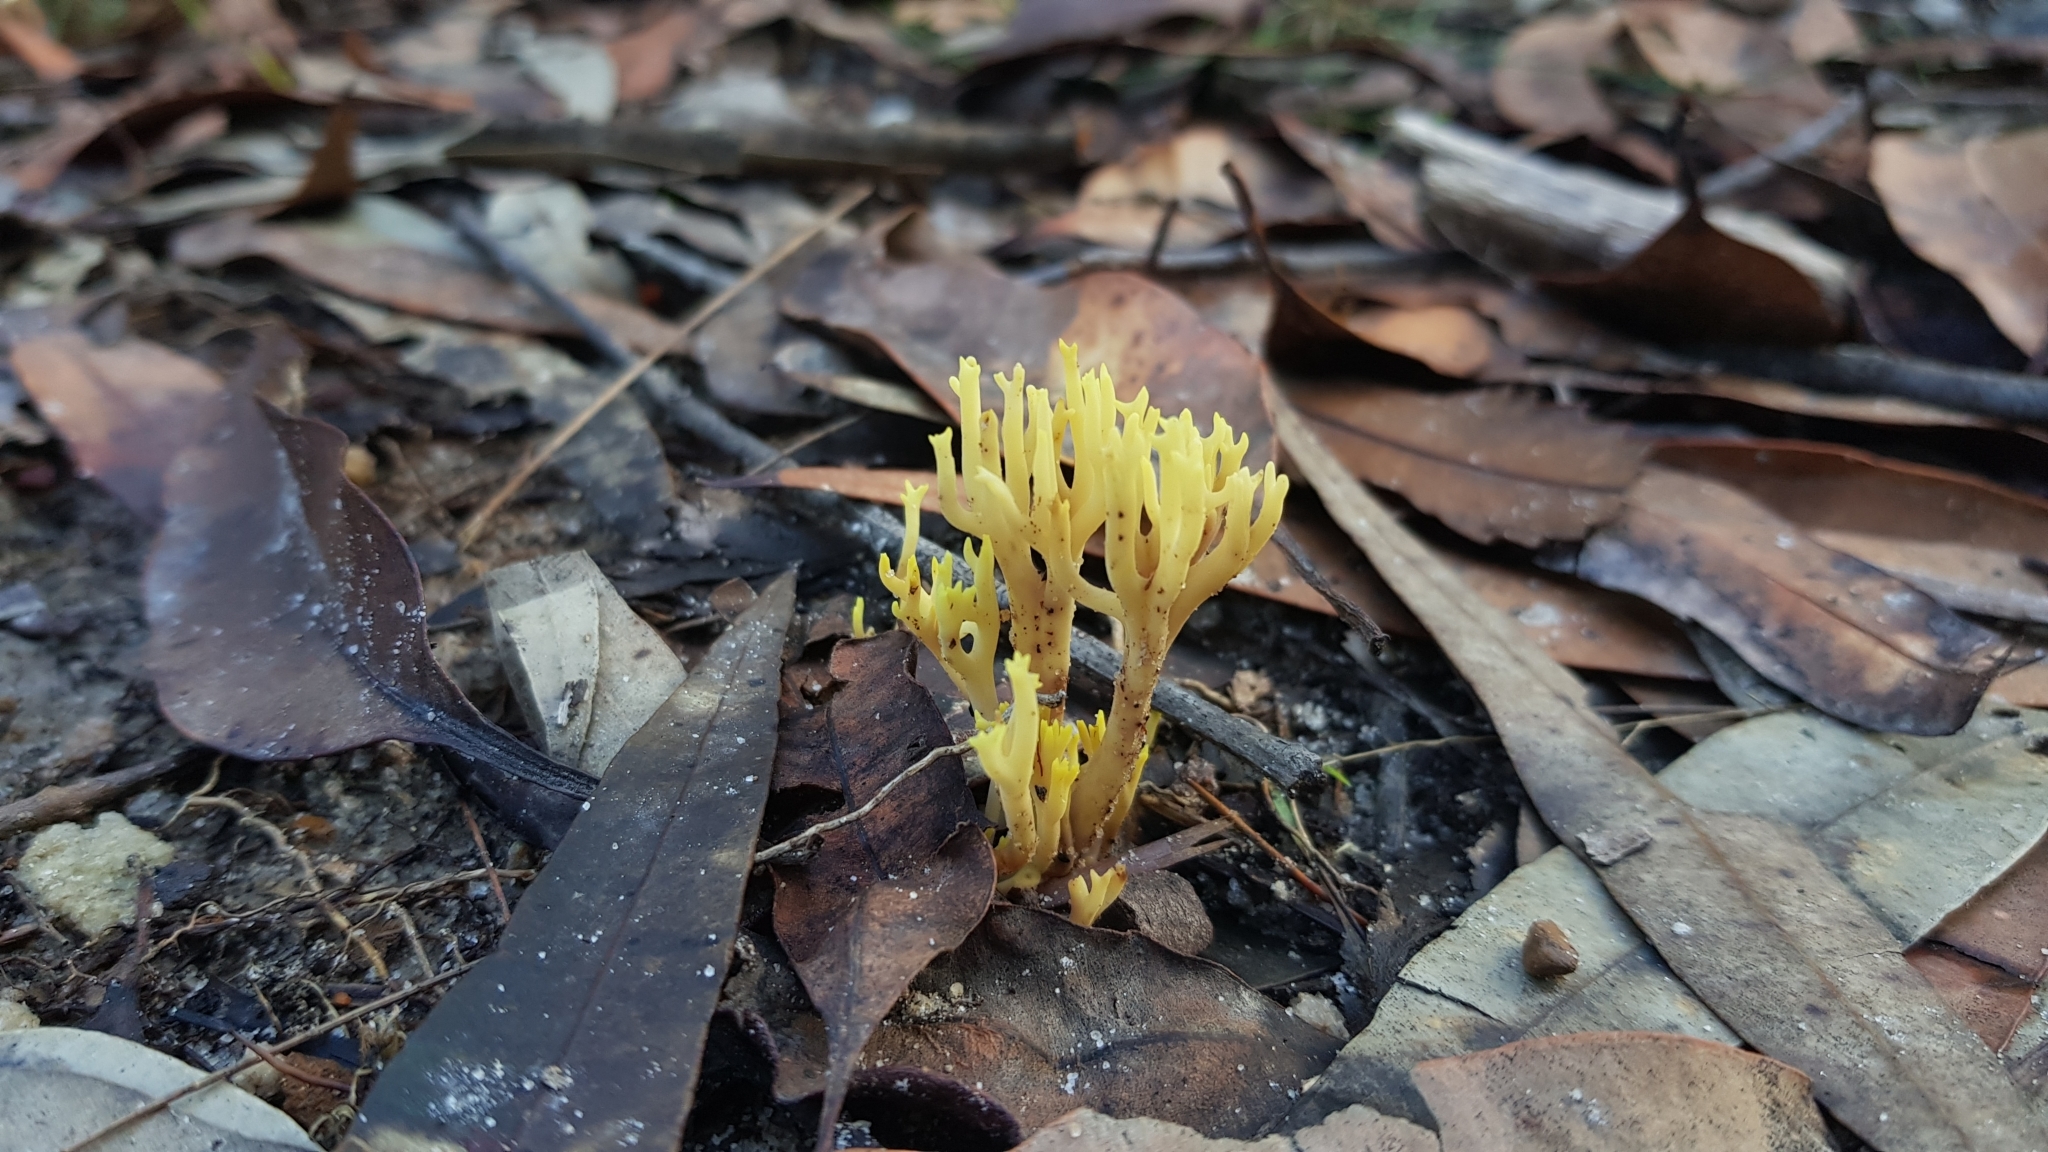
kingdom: Fungi
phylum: Basidiomycota
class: Agaricomycetes
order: Gomphales
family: Gomphaceae
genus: Ramaria
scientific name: Ramaria lorithamnus
